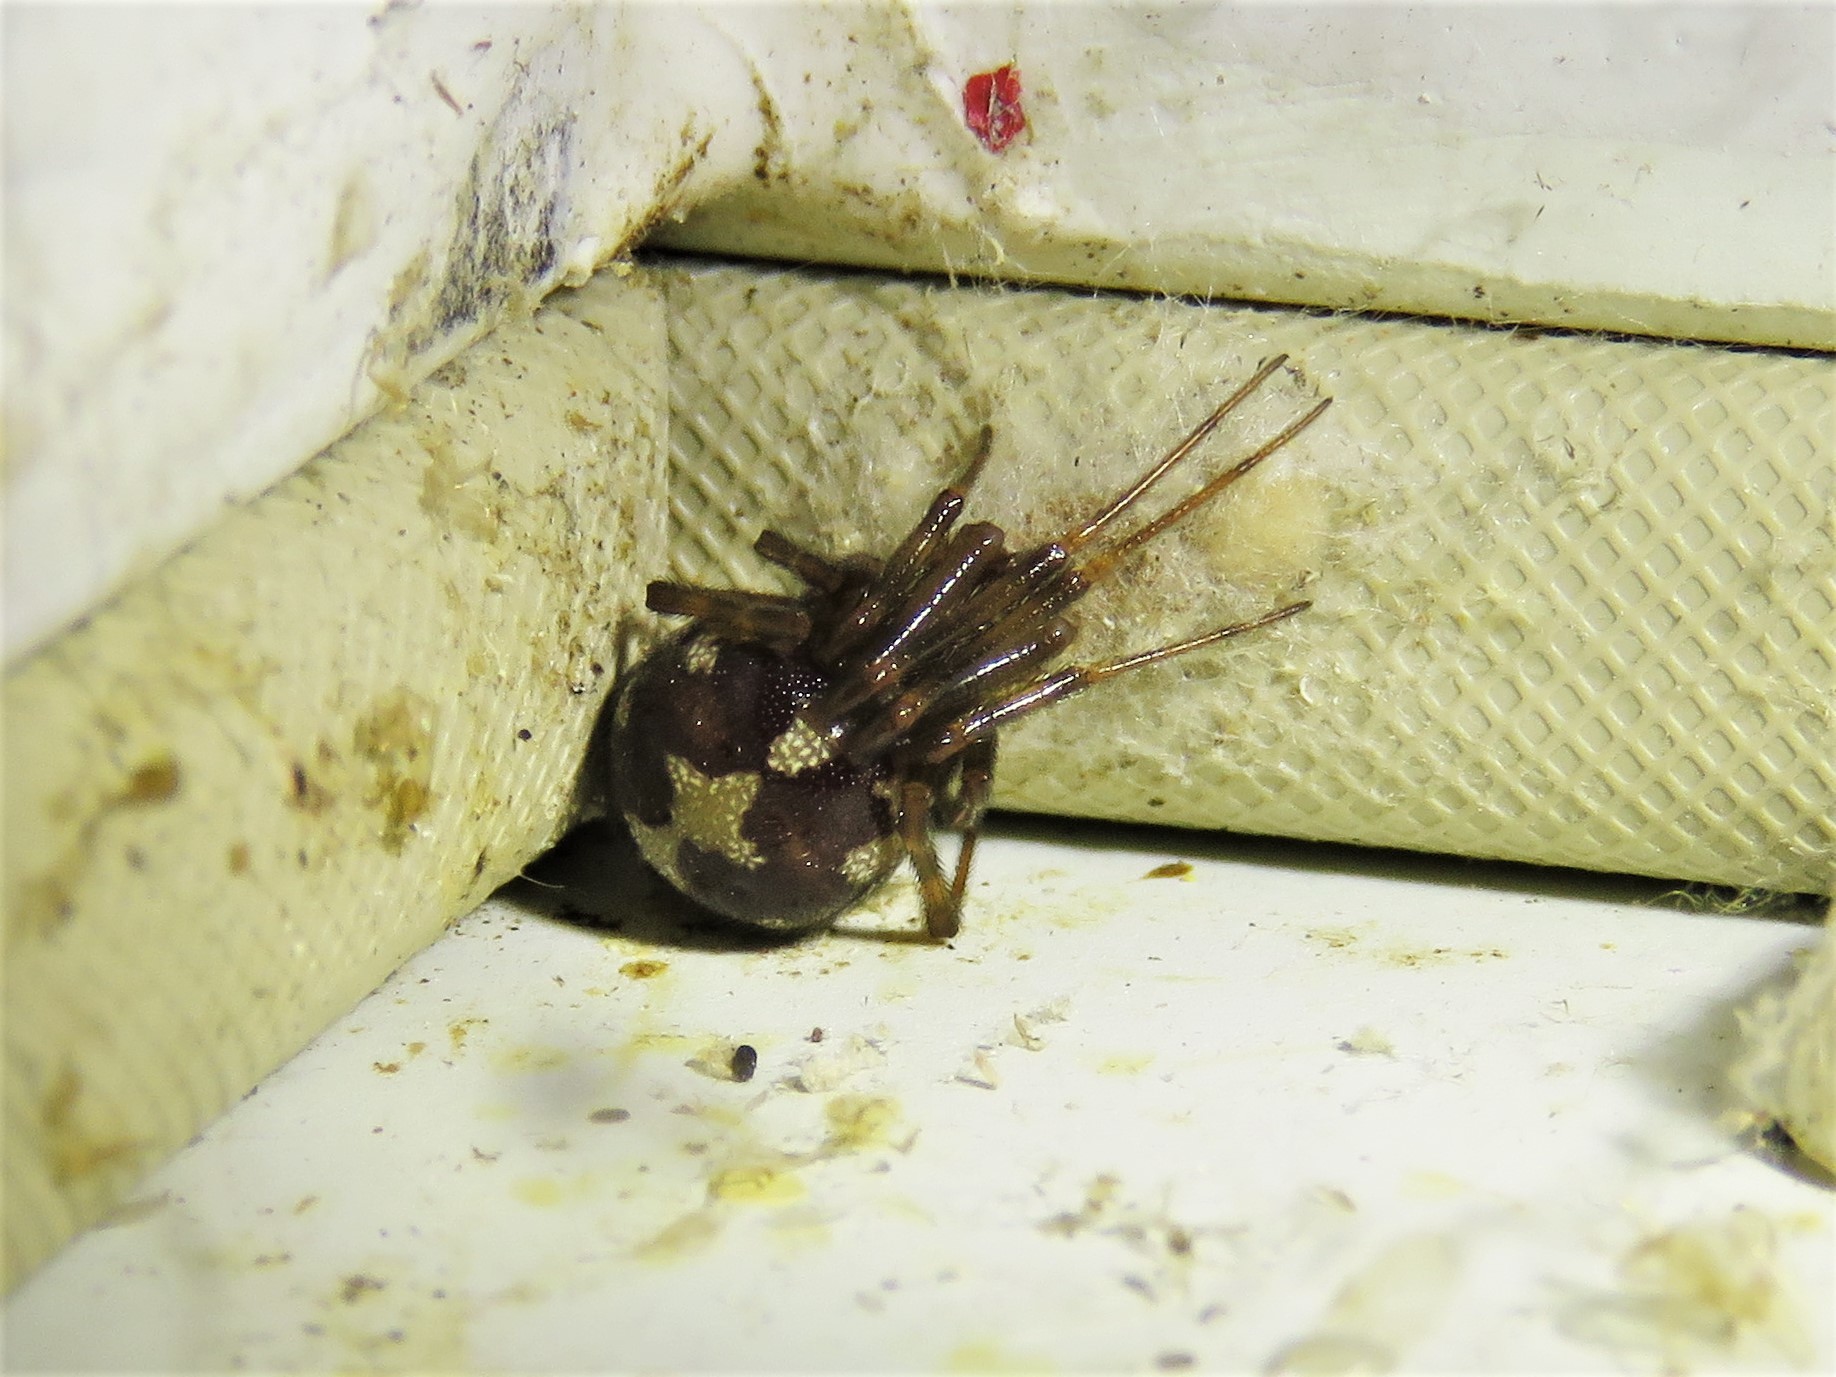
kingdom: Animalia
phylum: Arthropoda
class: Arachnida
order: Araneae
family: Theridiidae
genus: Steatoda
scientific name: Steatoda triangulosa
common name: Triangulate bud spider
